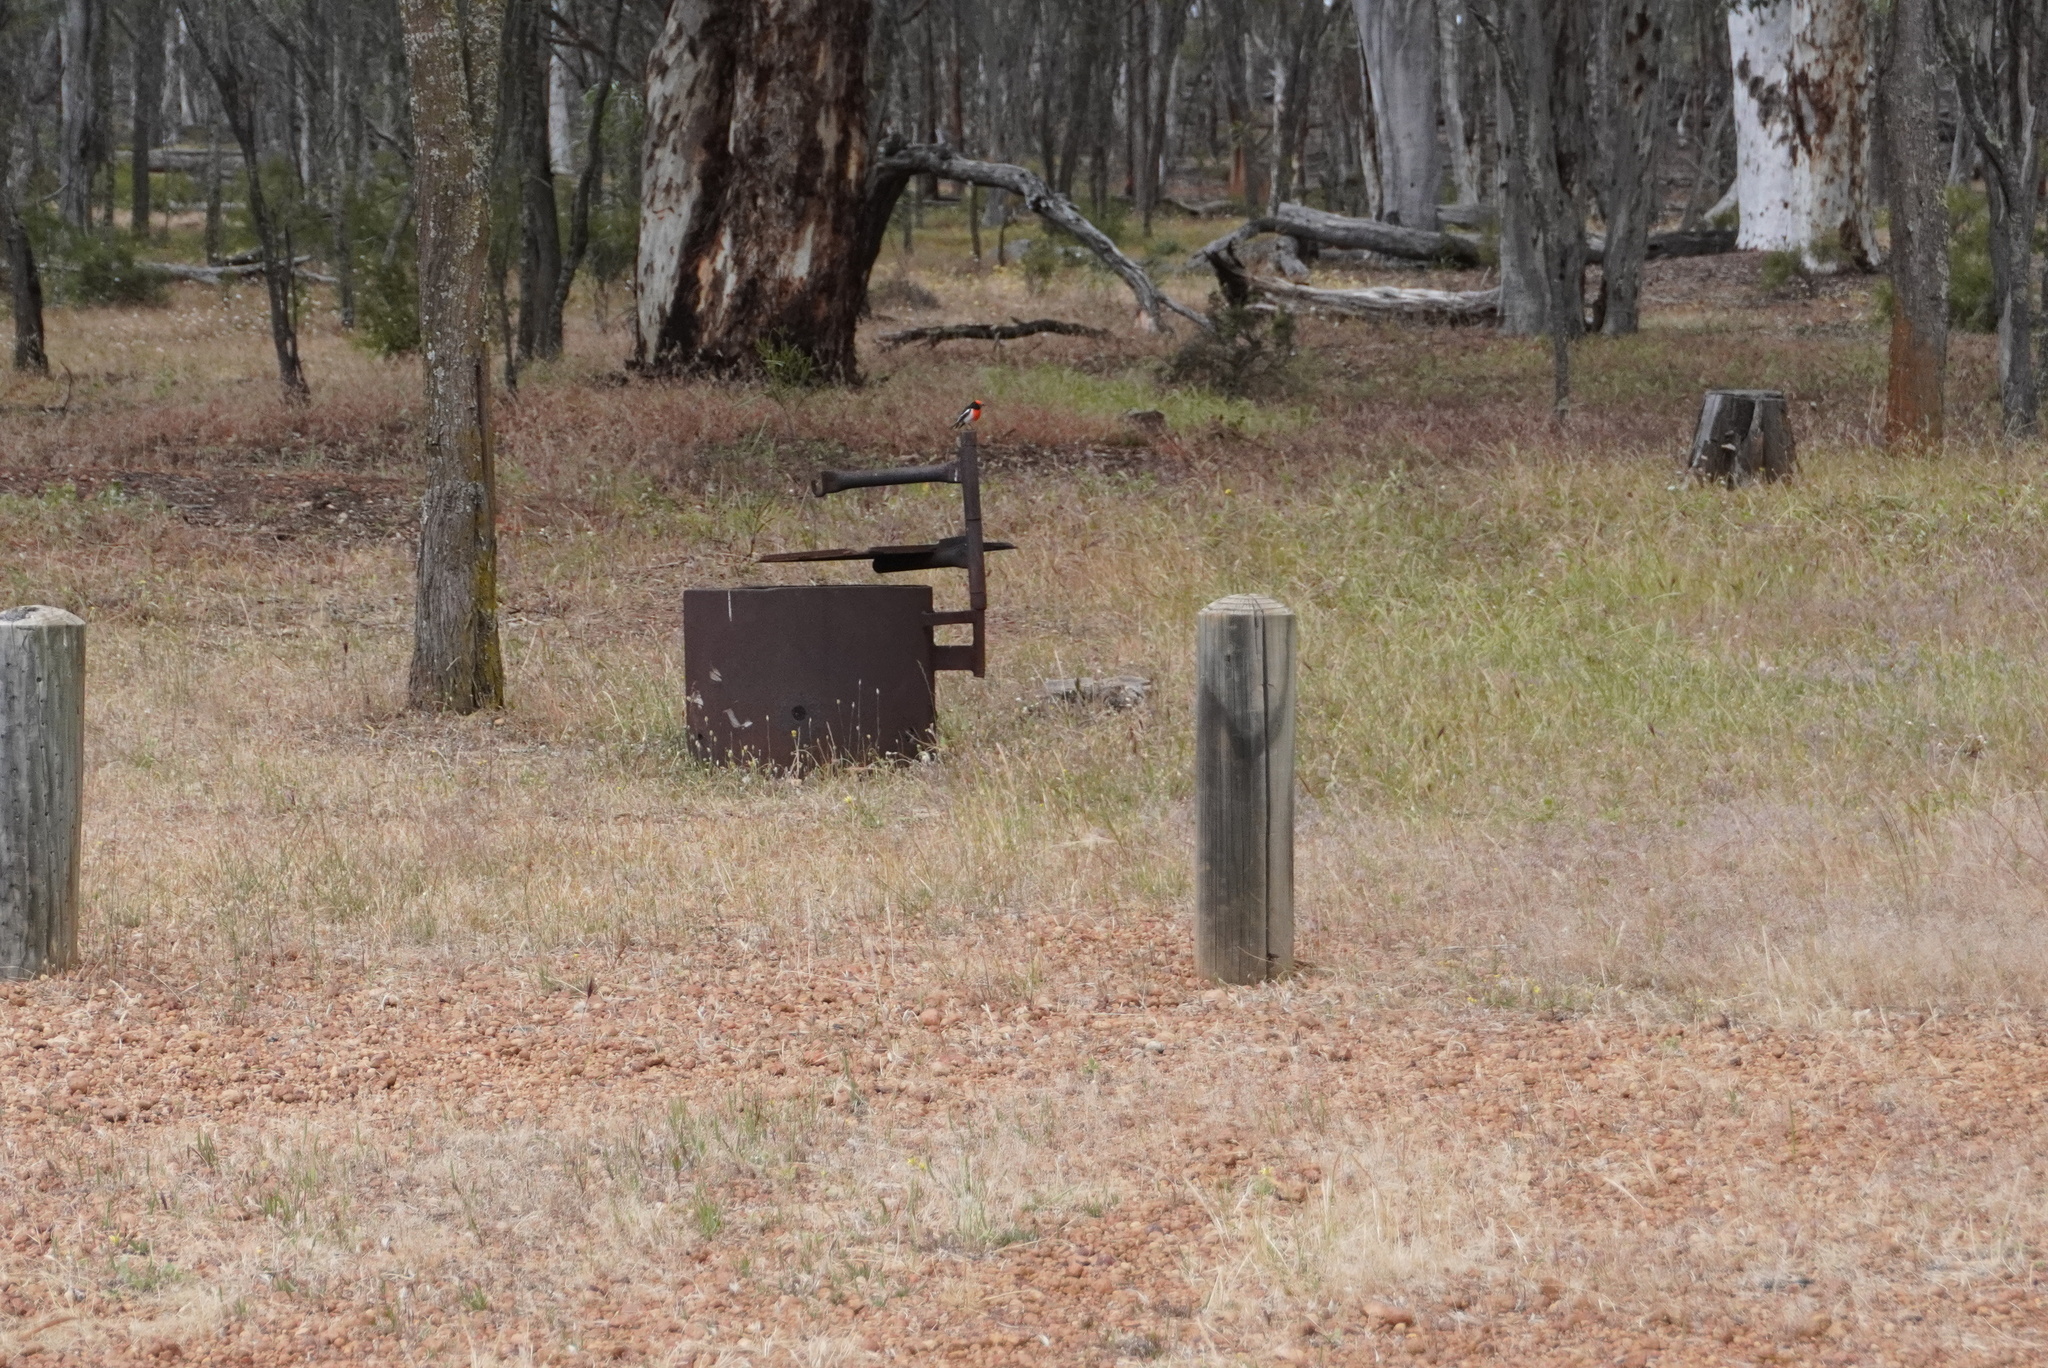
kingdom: Animalia
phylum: Chordata
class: Aves
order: Passeriformes
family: Petroicidae
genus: Petroica
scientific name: Petroica goodenovii
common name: Red-capped robin
